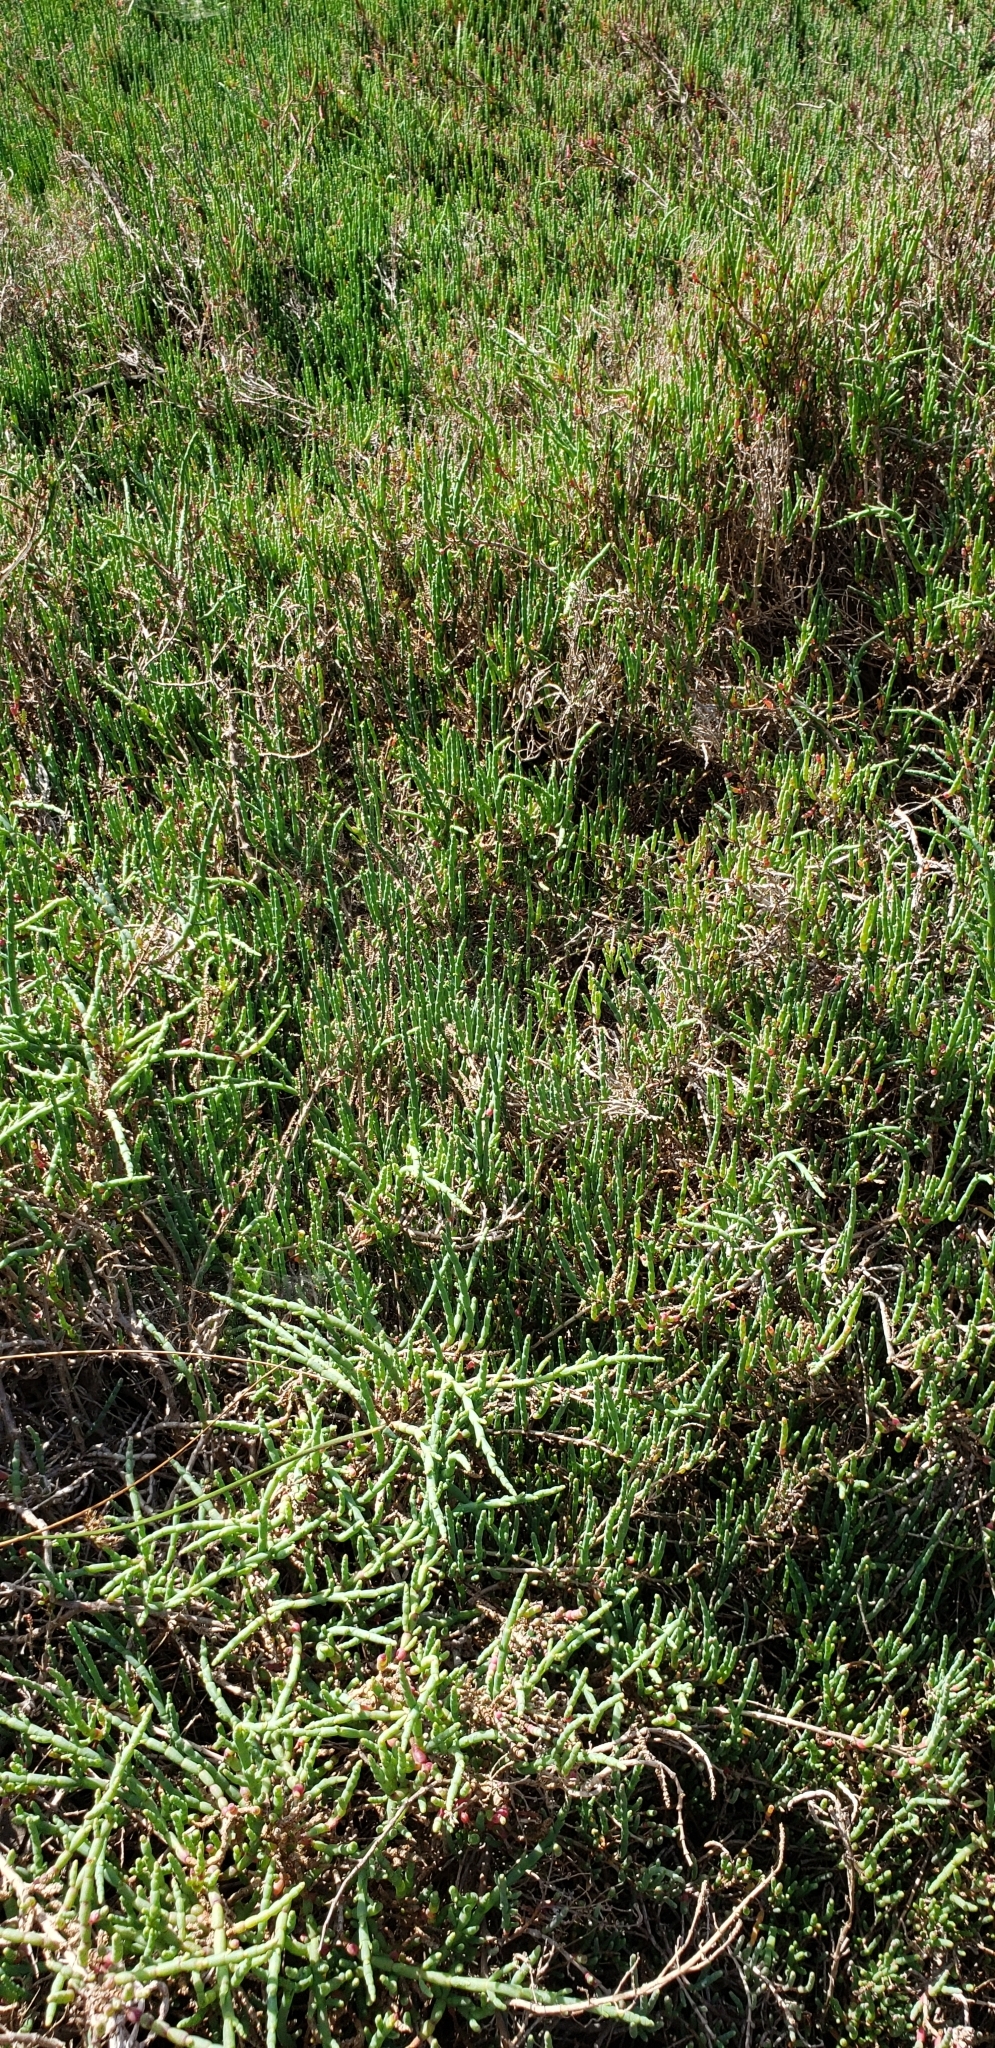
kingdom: Plantae
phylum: Tracheophyta
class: Magnoliopsida
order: Caryophyllales
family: Amaranthaceae
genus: Salicornia
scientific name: Salicornia neei
